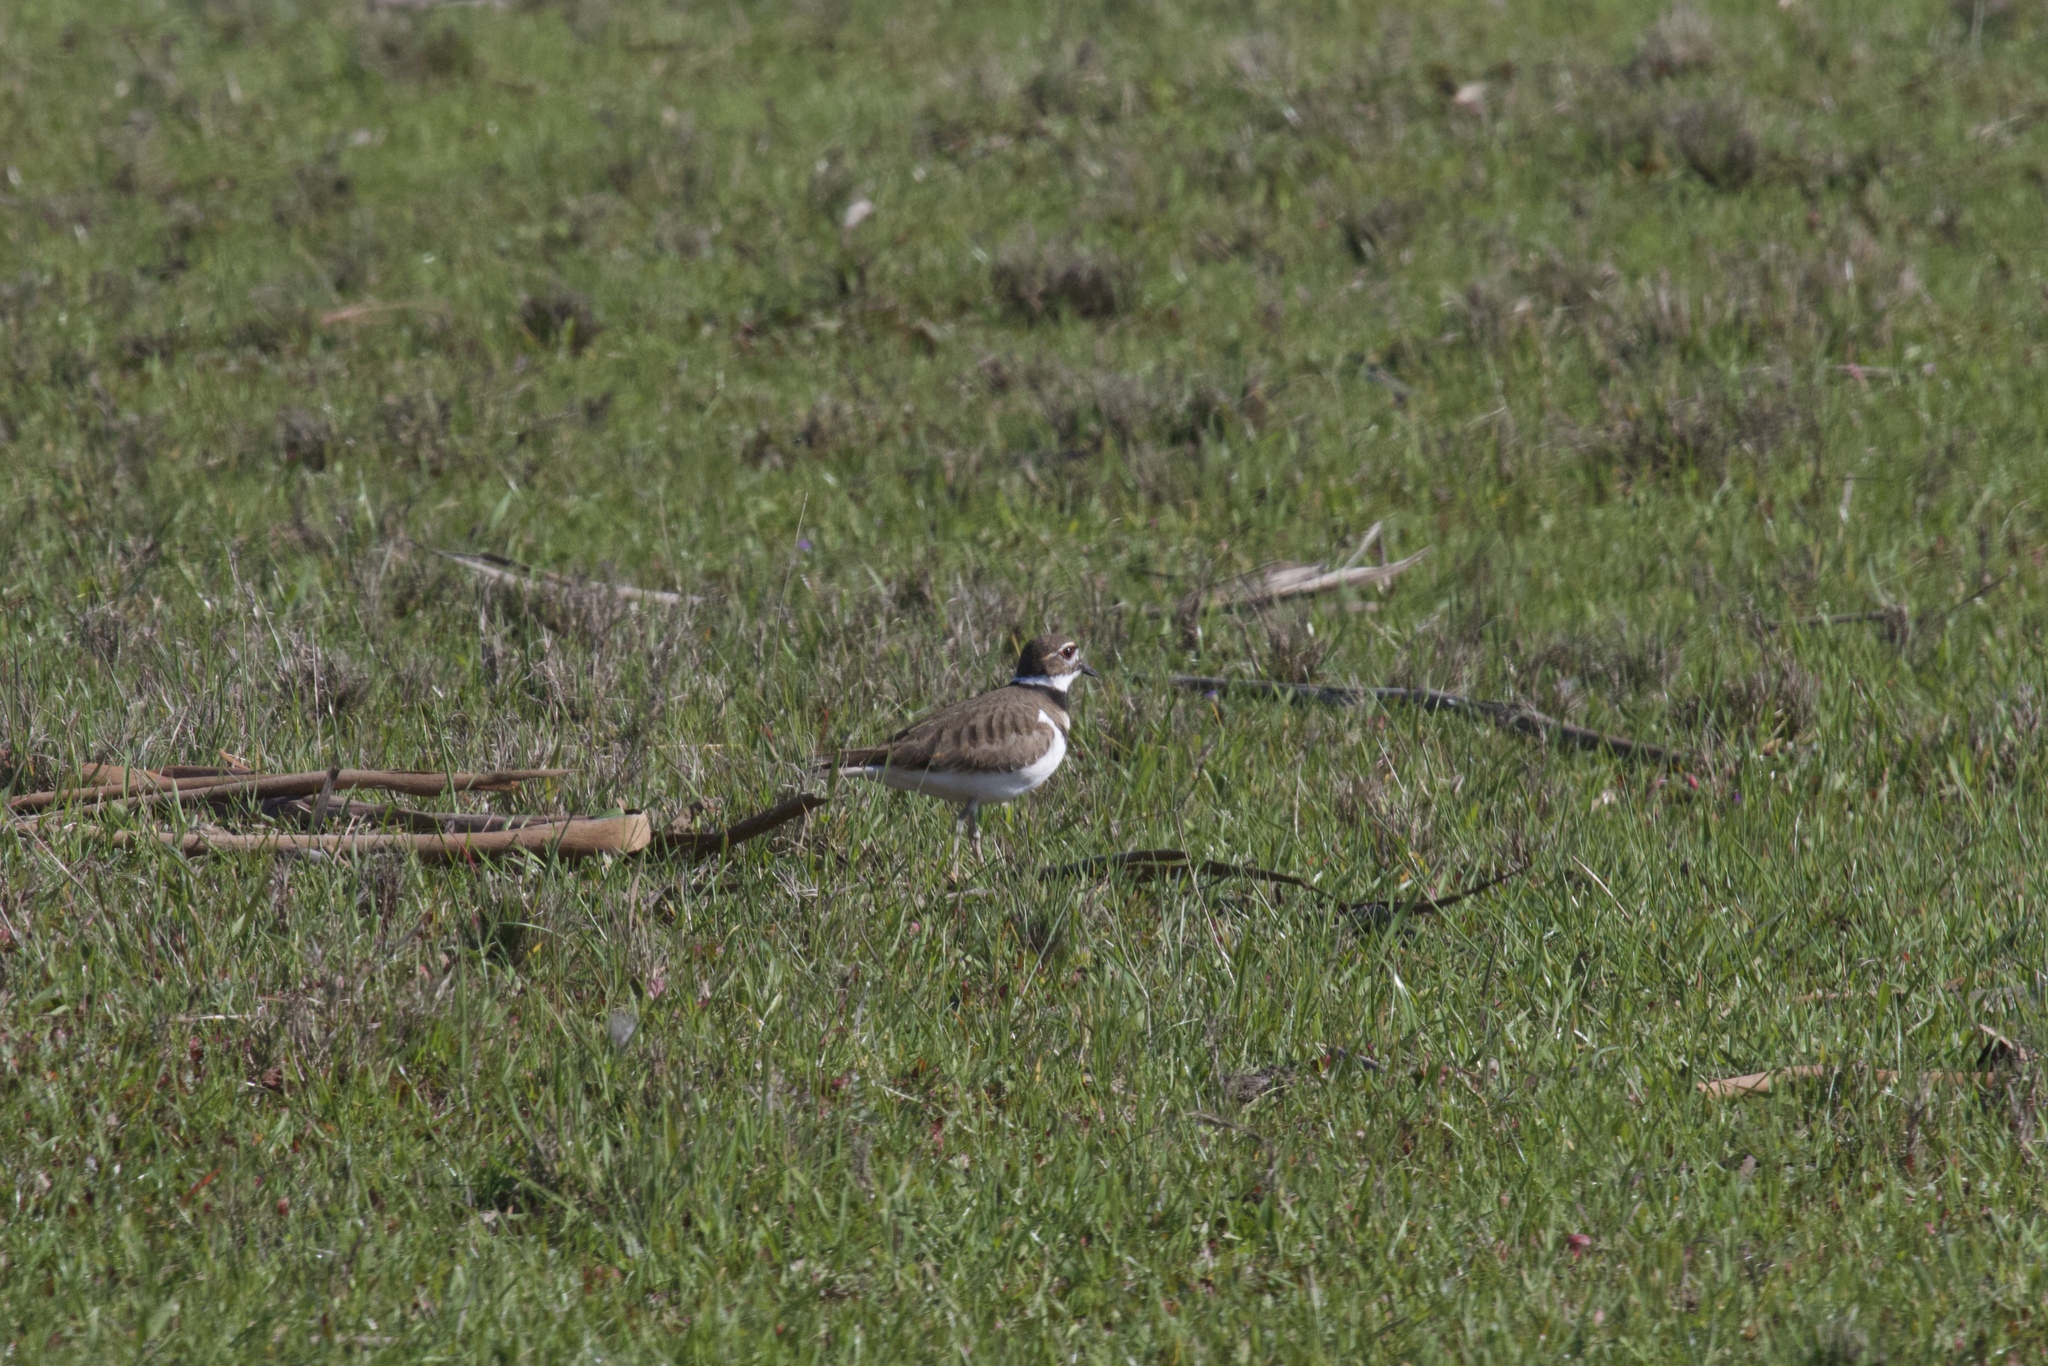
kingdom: Animalia
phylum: Chordata
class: Aves
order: Charadriiformes
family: Charadriidae
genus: Charadrius
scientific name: Charadrius vociferus
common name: Killdeer
